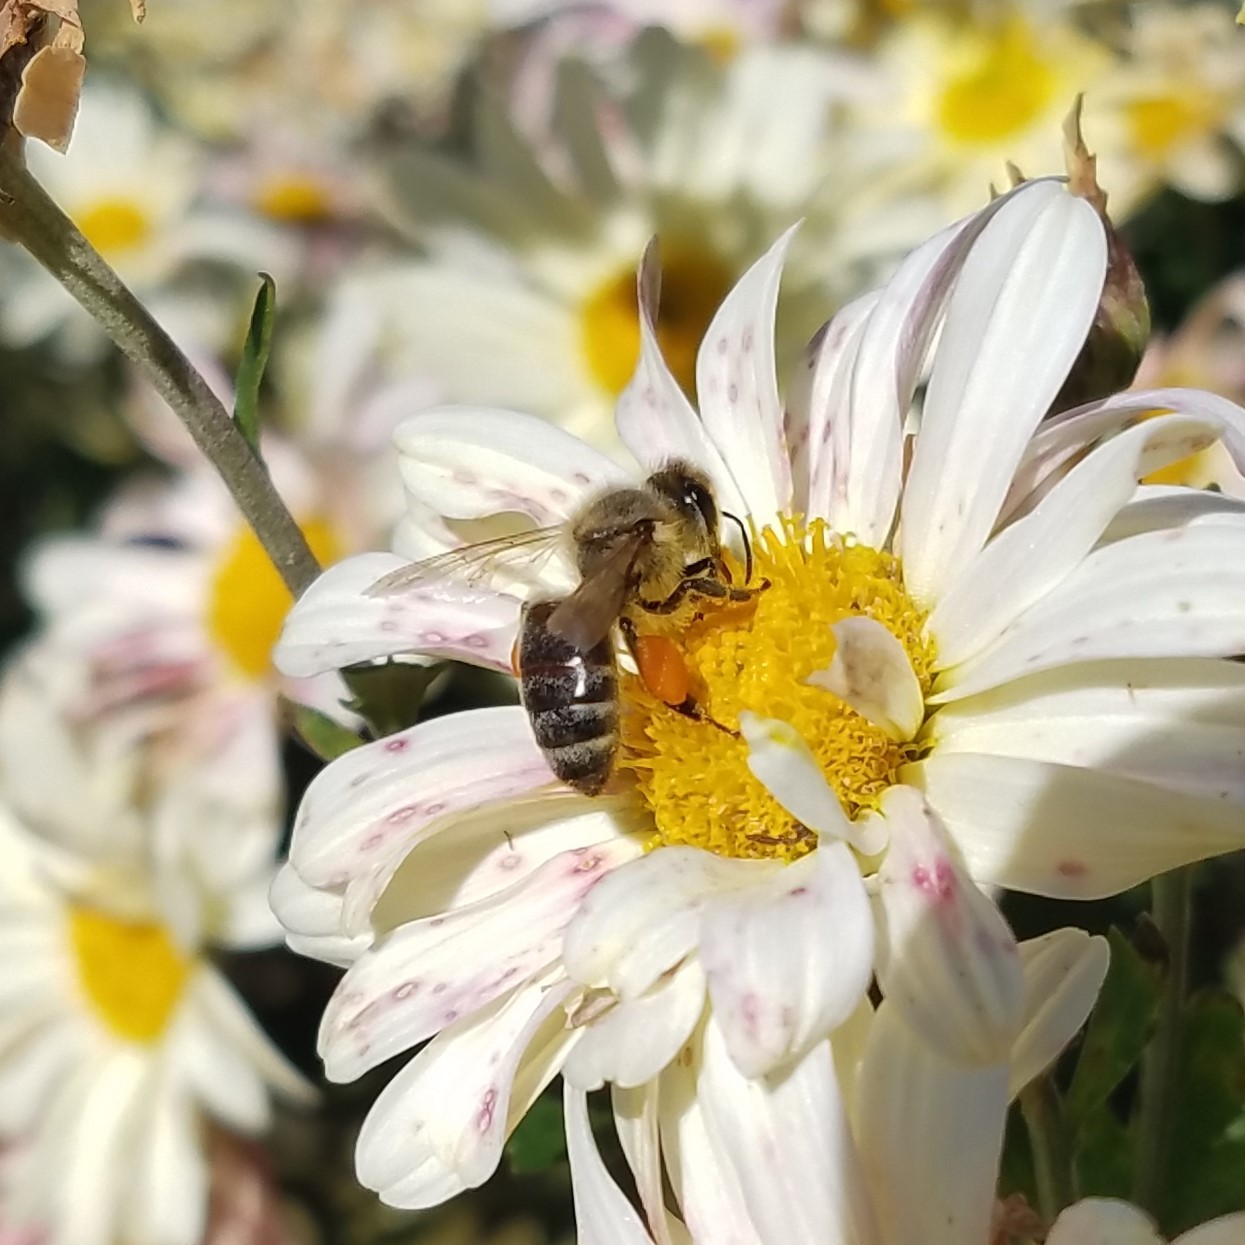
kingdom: Animalia
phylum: Arthropoda
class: Insecta
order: Hymenoptera
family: Apidae
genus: Apis
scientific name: Apis mellifera
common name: Honey bee
